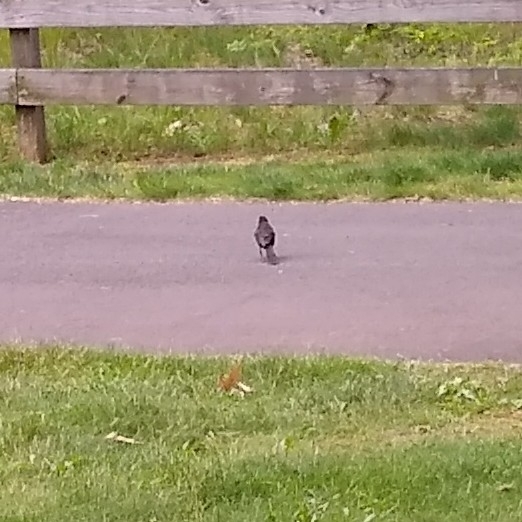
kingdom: Animalia
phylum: Chordata
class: Aves
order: Passeriformes
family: Icteridae
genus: Quiscalus
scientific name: Quiscalus quiscula
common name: Common grackle
